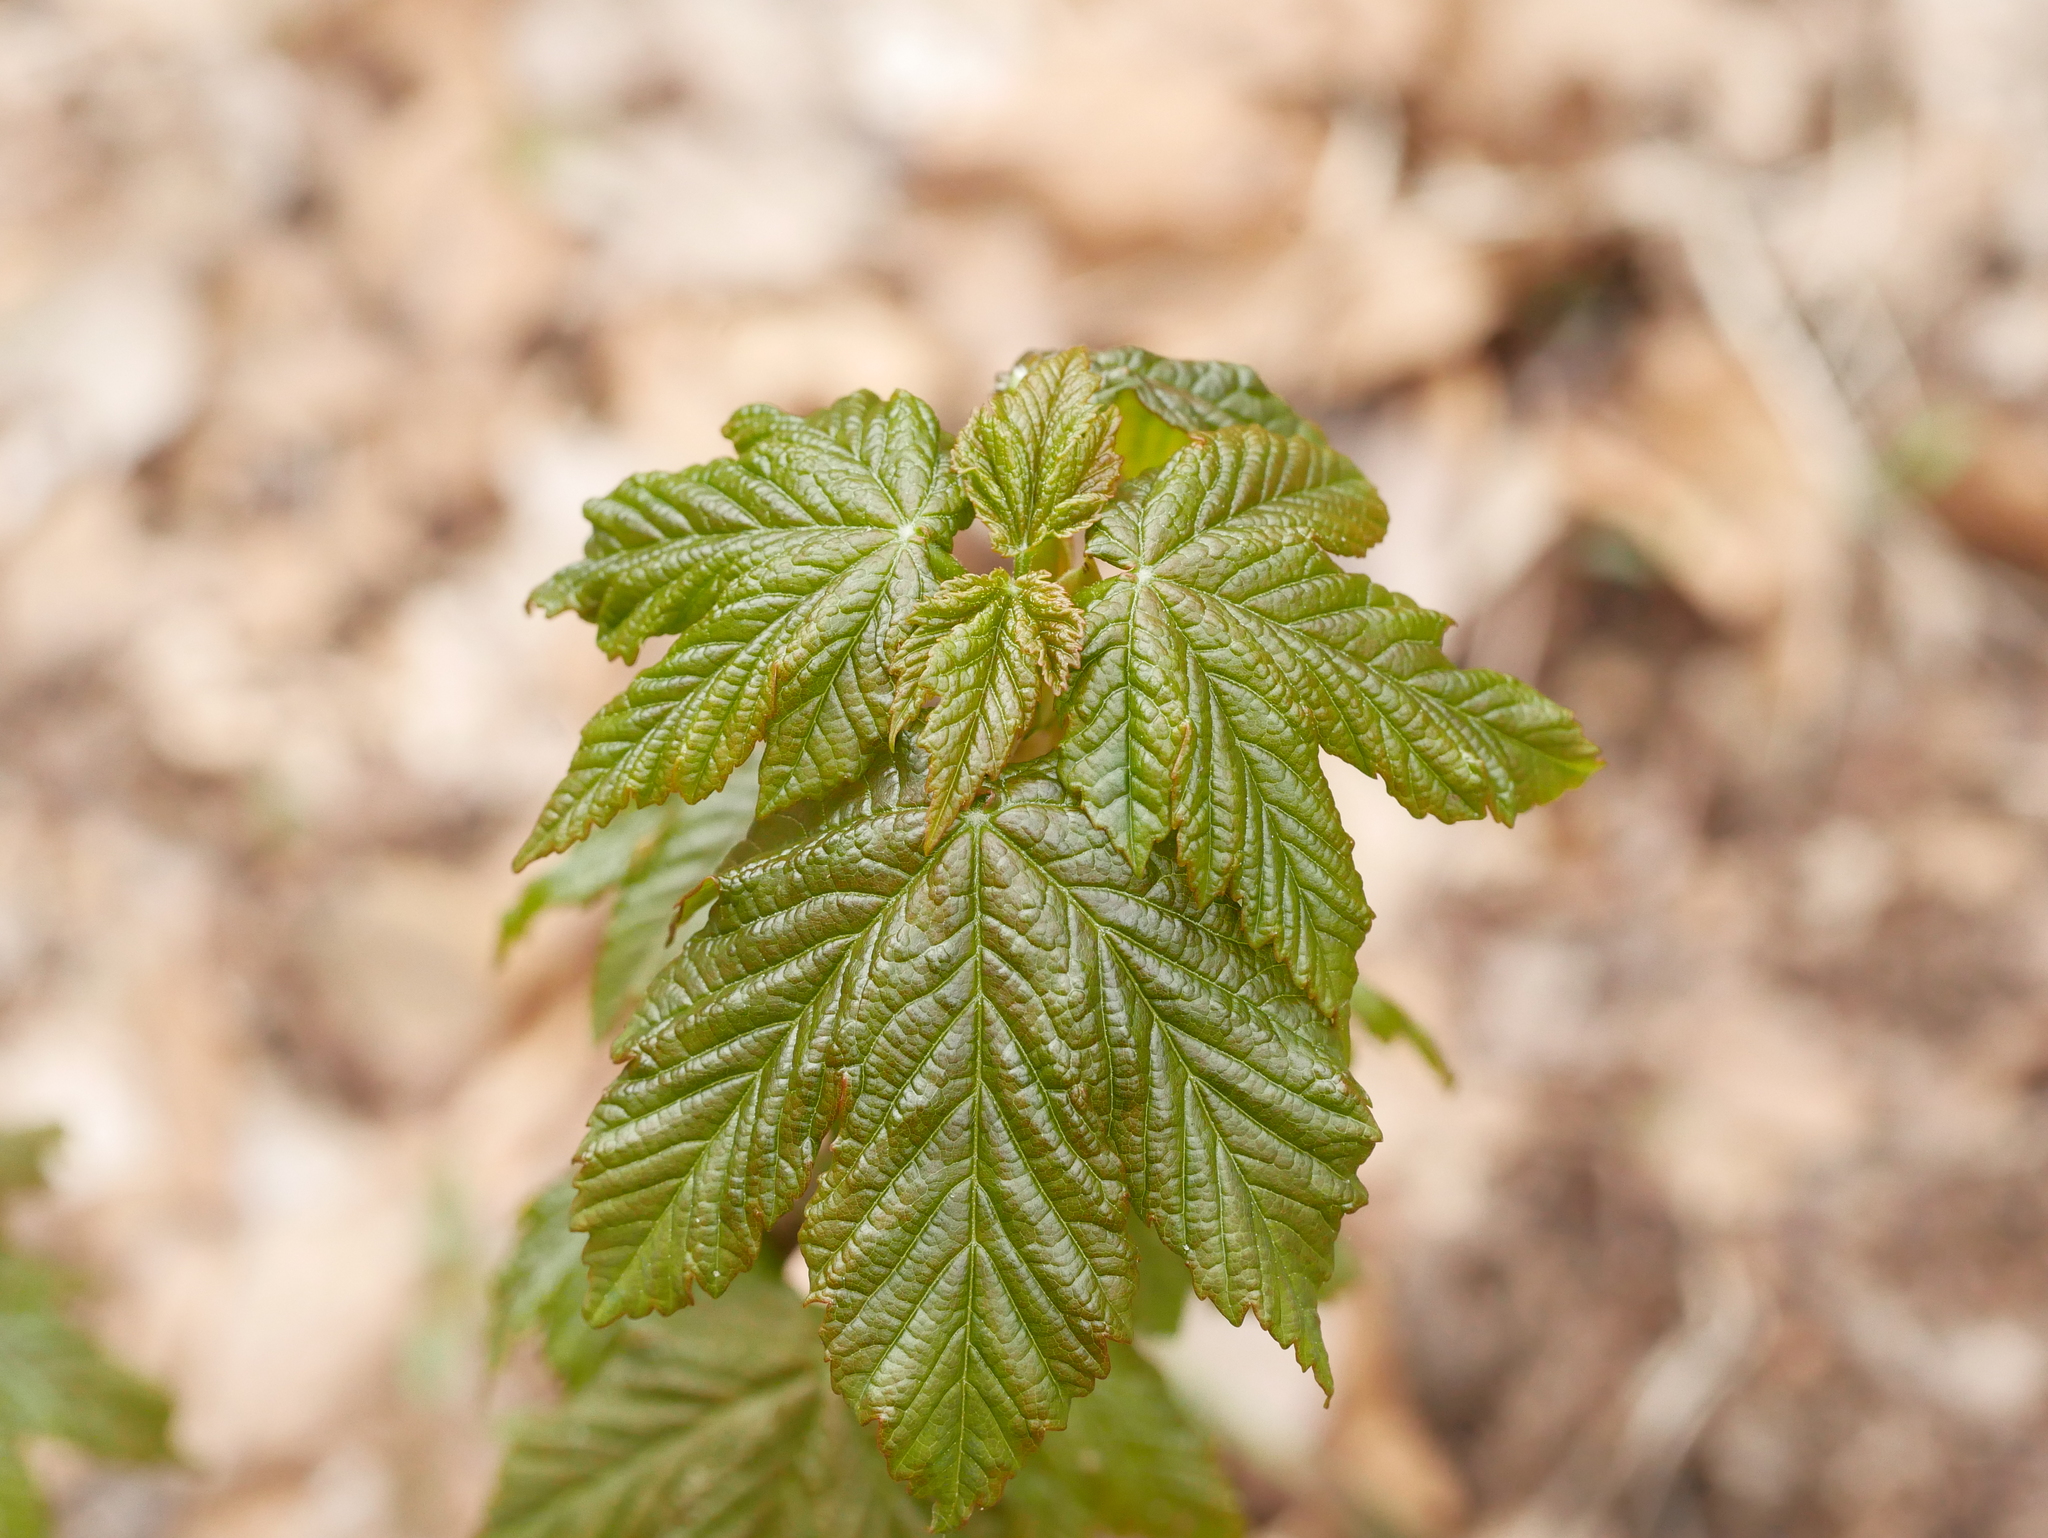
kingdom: Plantae
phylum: Tracheophyta
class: Magnoliopsida
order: Sapindales
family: Sapindaceae
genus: Acer
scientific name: Acer pseudoplatanus
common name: Sycamore
